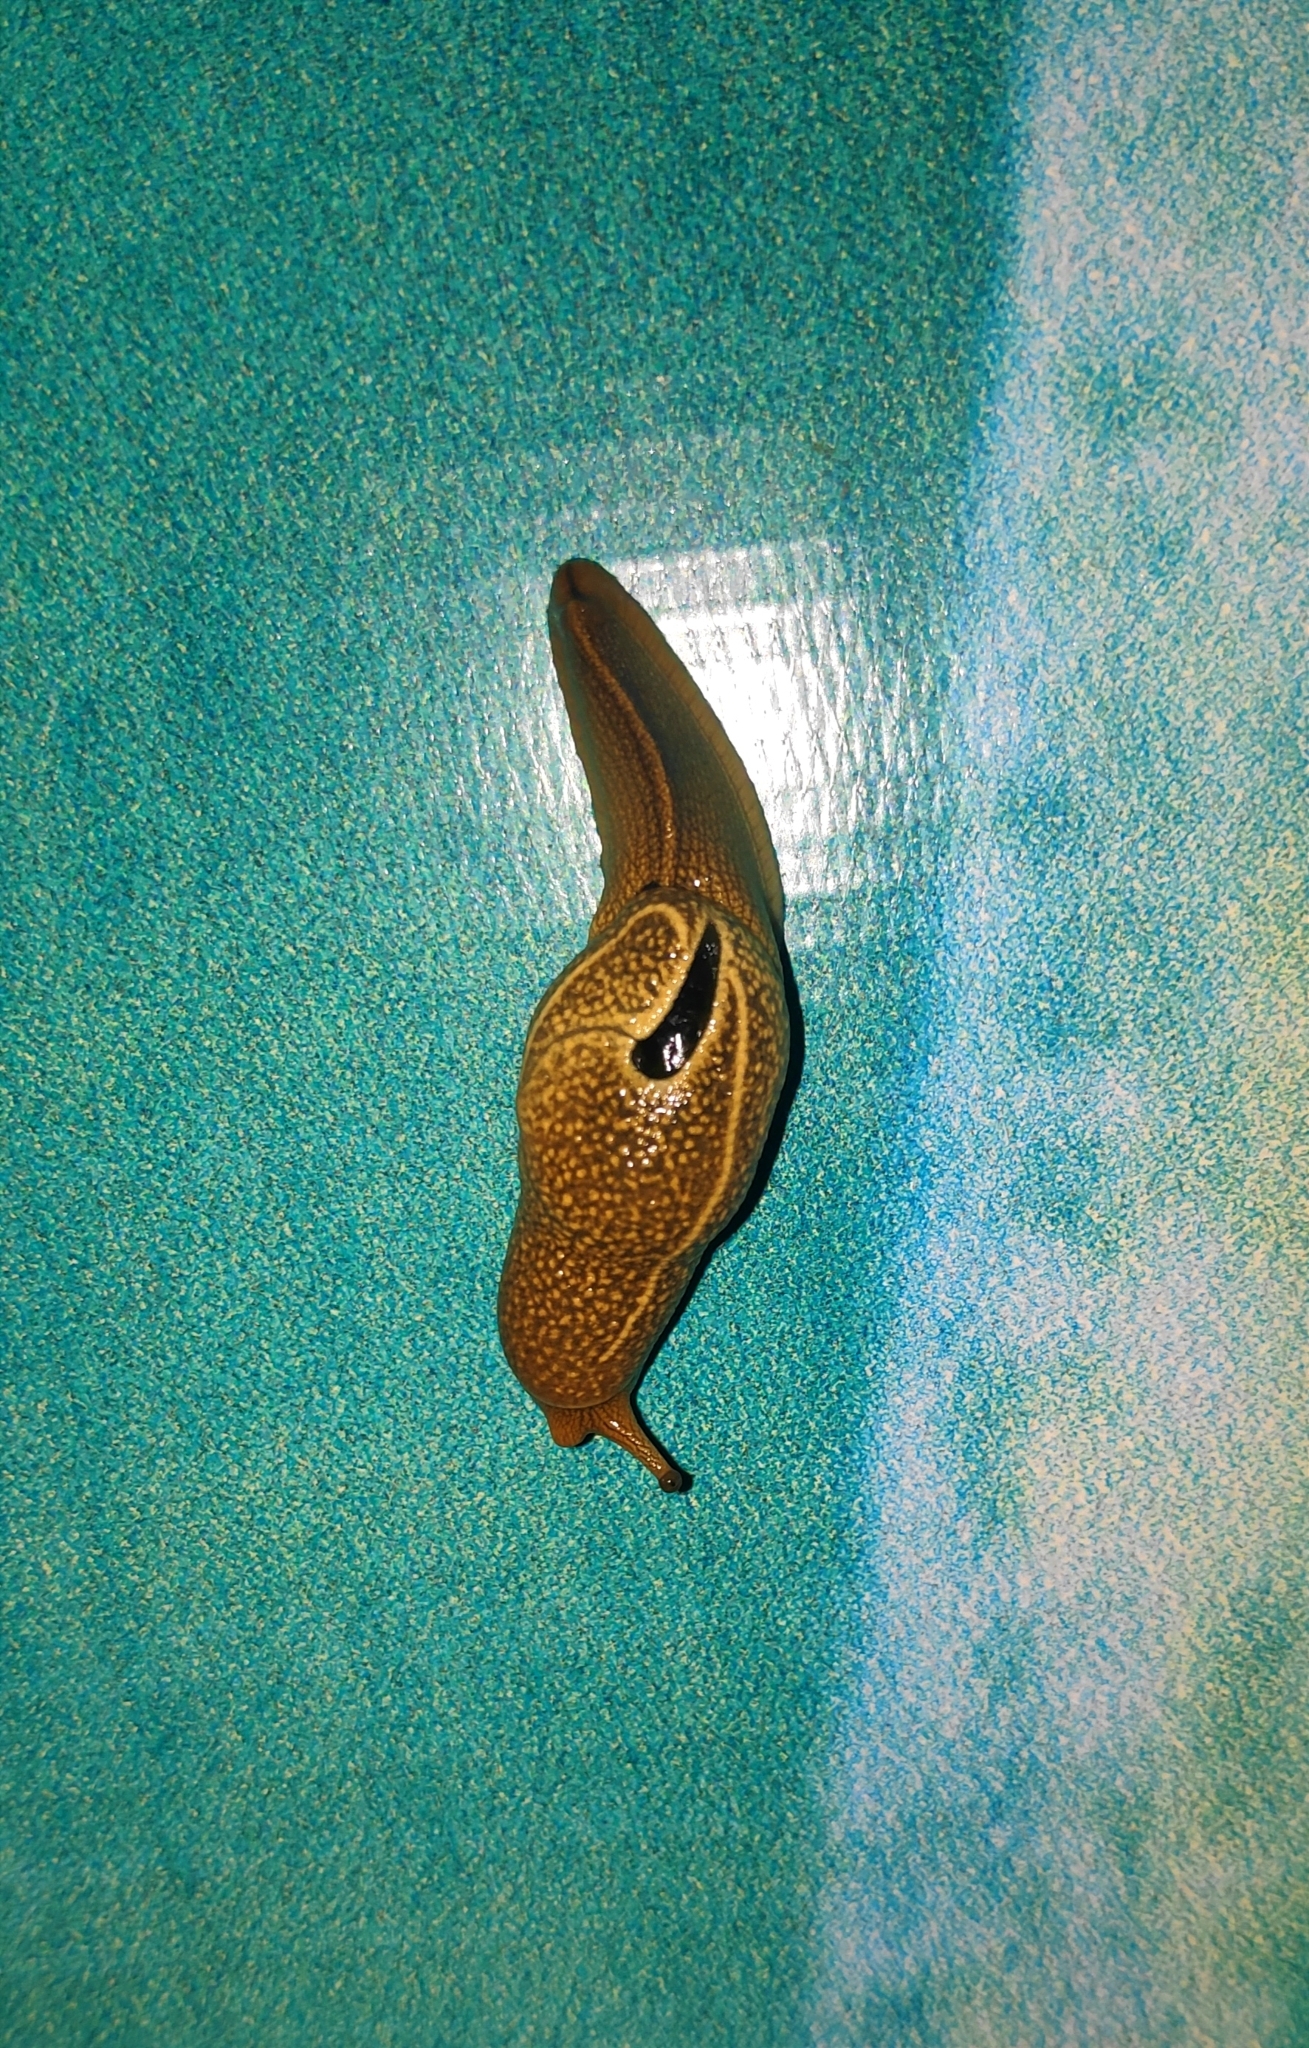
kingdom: Animalia
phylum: Mollusca
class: Gastropoda
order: Stylommatophora
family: Helicarionidae
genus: Girasia
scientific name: Girasia crocea
